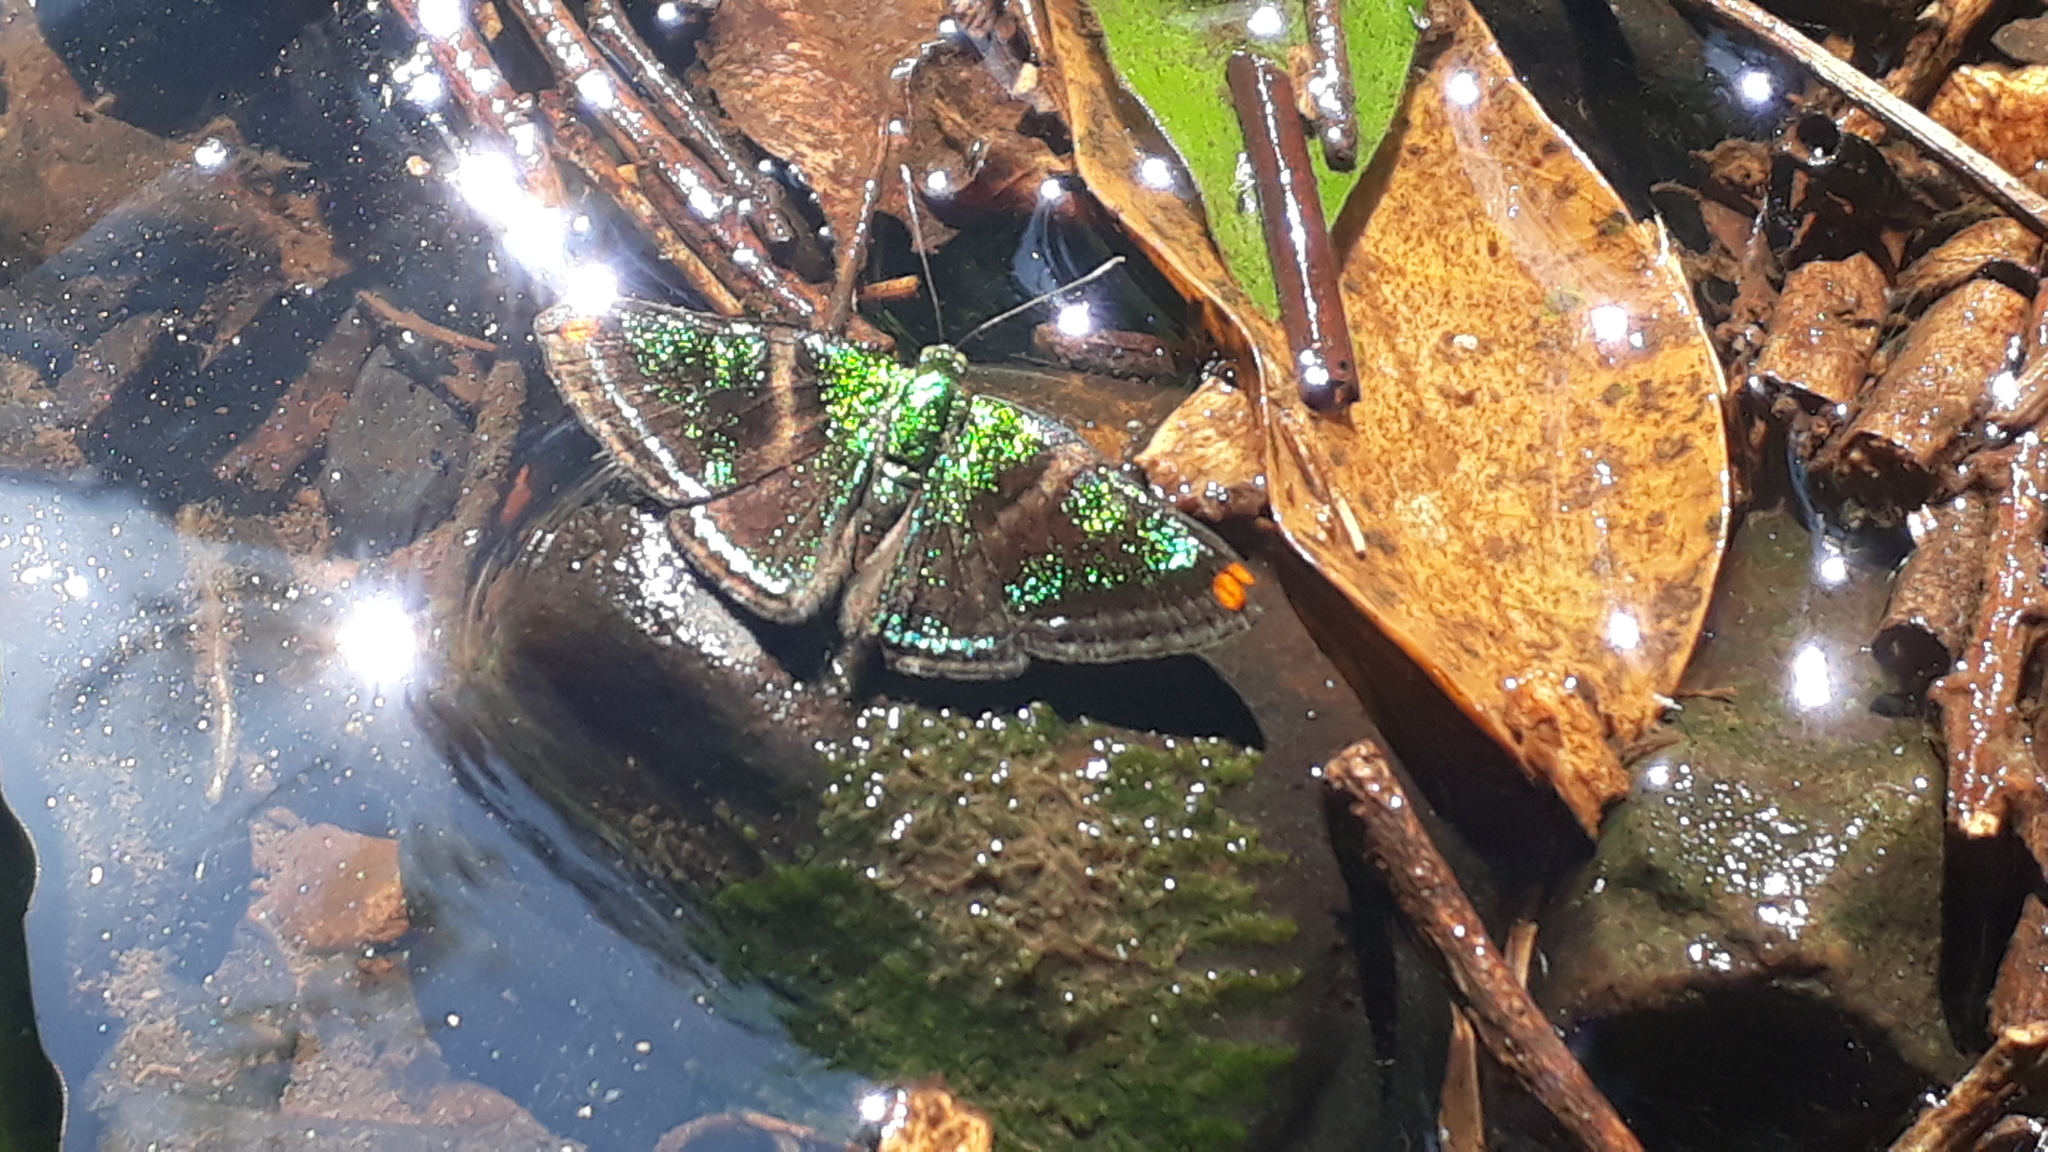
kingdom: Animalia
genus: Caria
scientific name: Caria plutargus
